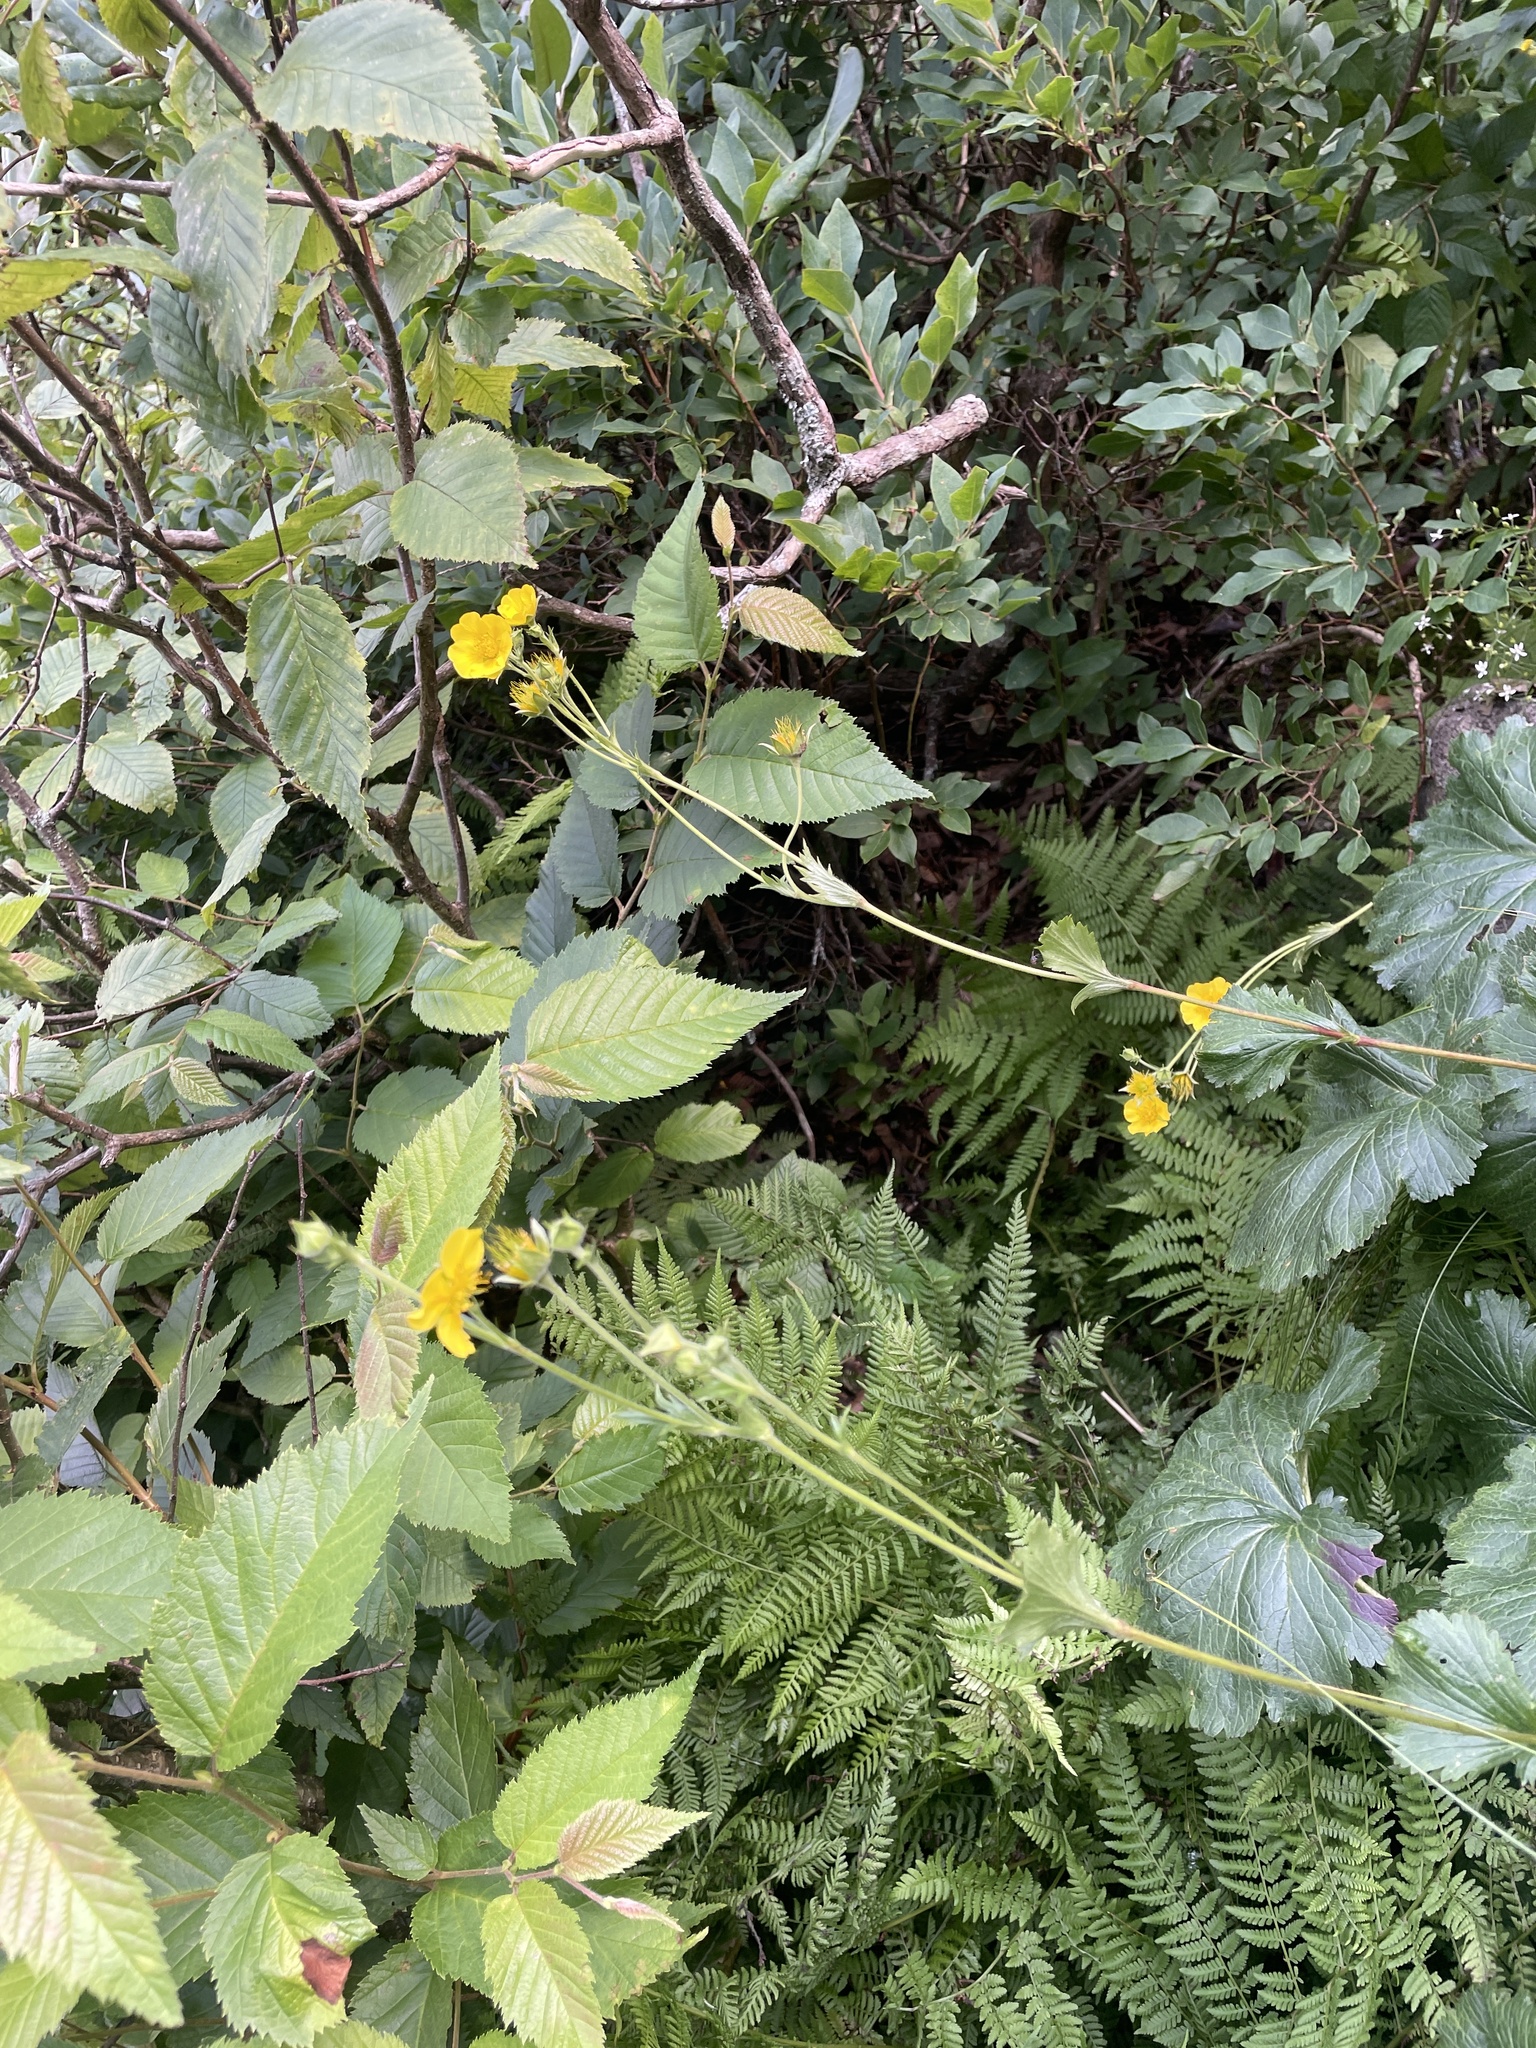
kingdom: Plantae
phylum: Tracheophyta
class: Magnoliopsida
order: Rosales
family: Rosaceae
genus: Geum
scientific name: Geum radiatum
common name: Spreaded avens
